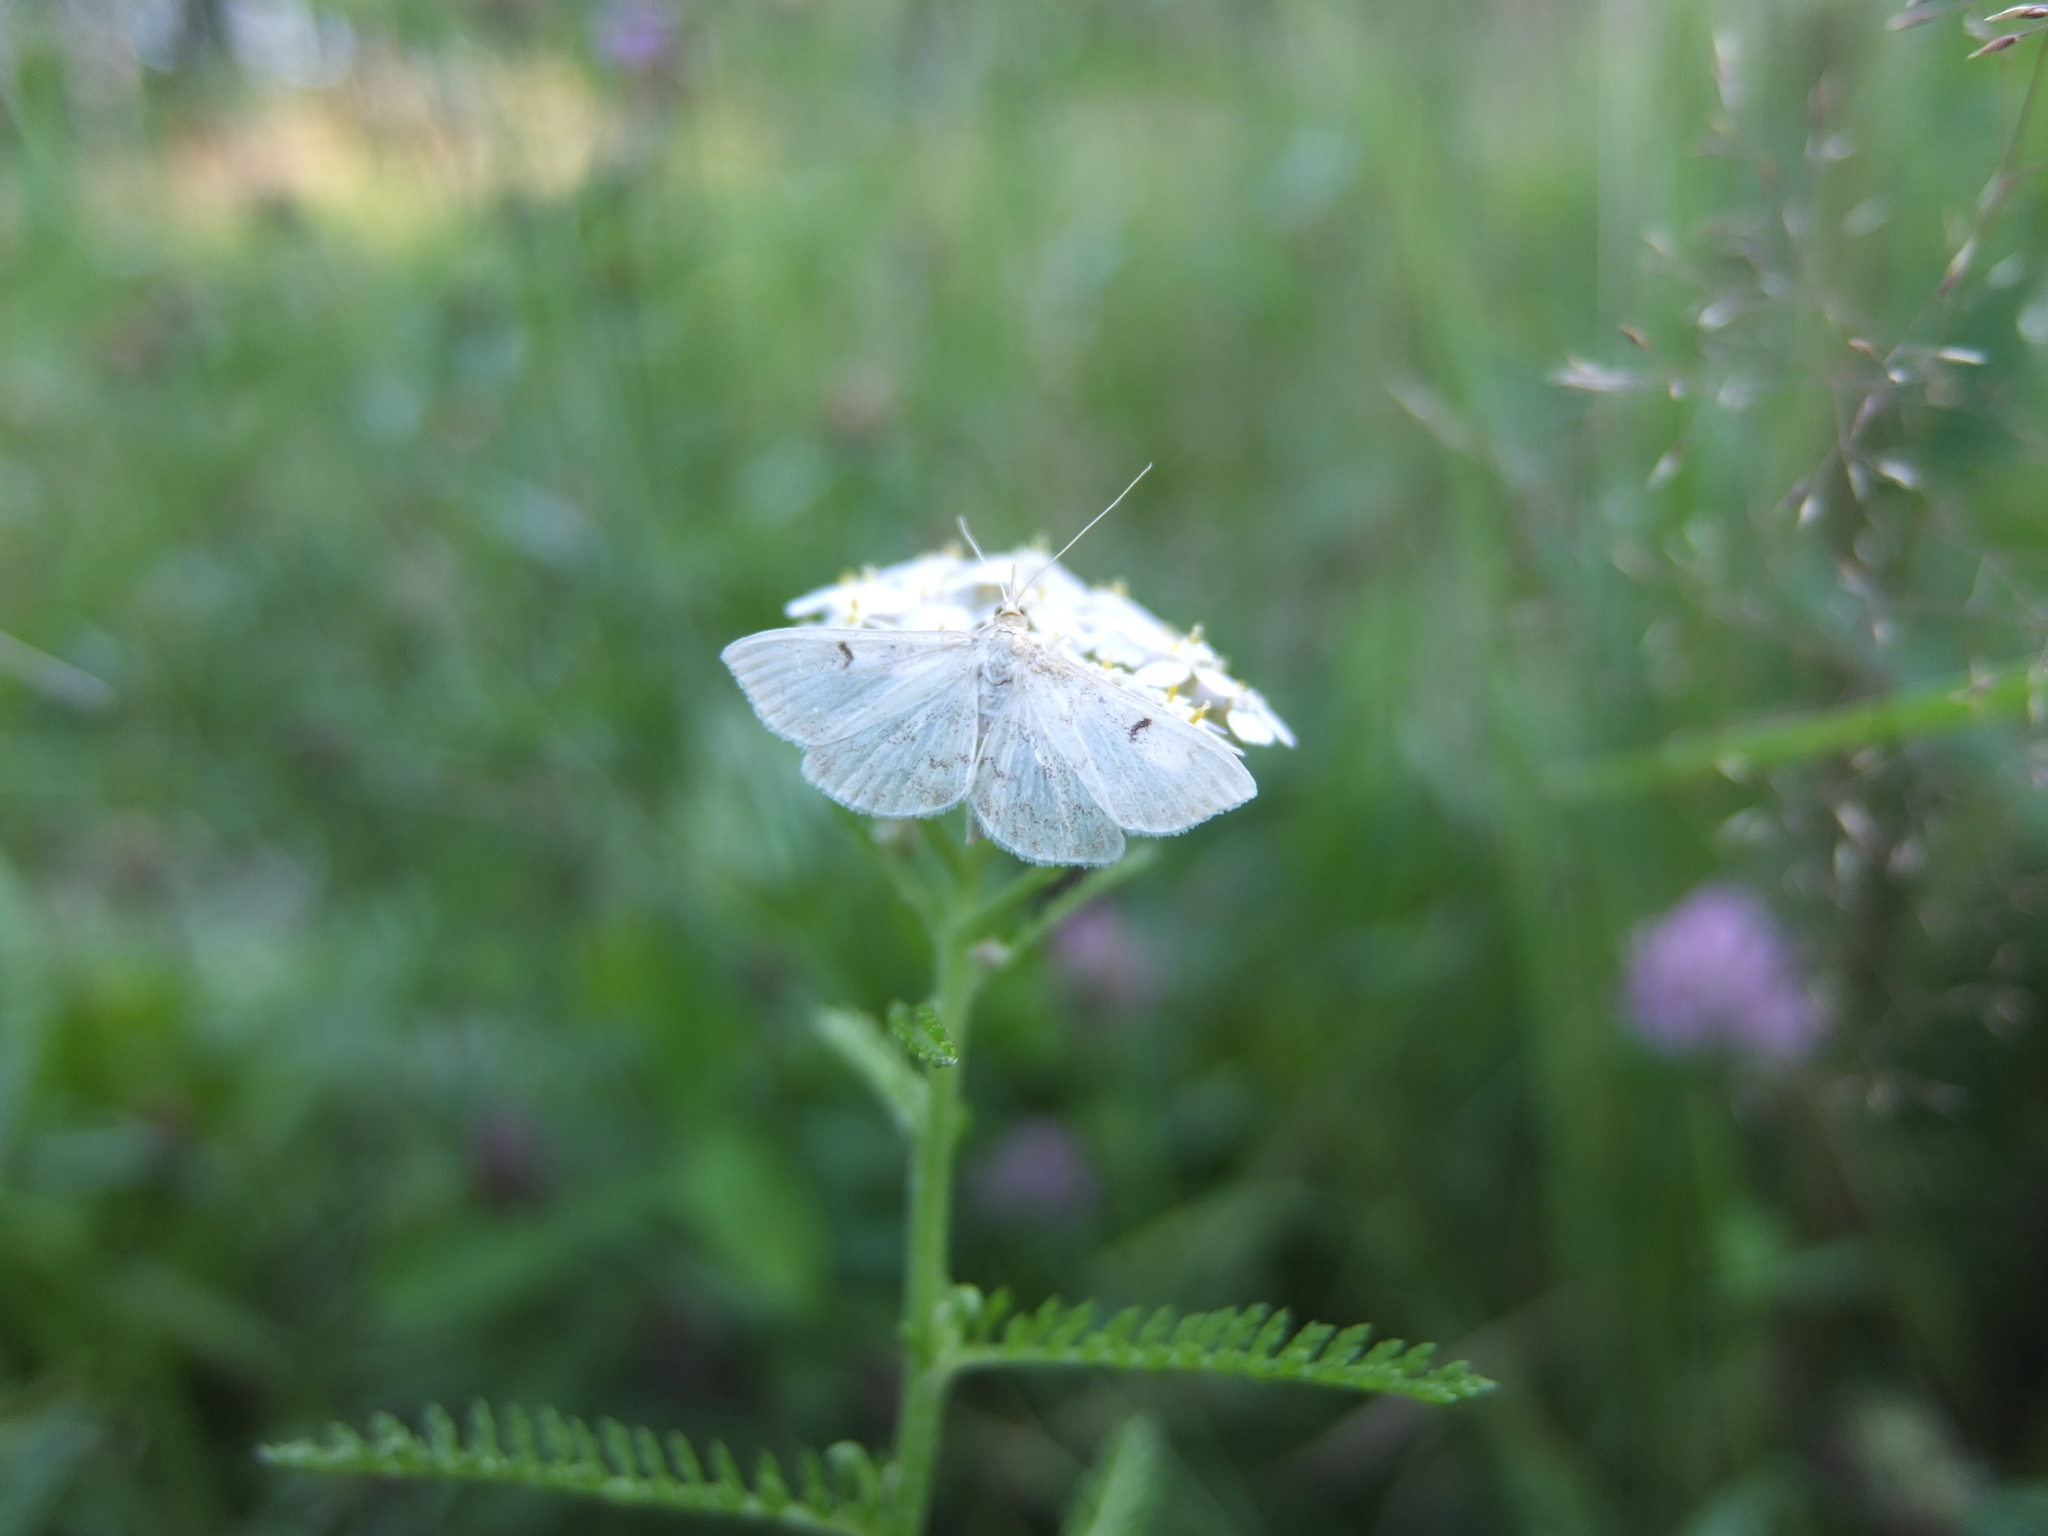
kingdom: Animalia
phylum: Arthropoda
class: Insecta
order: Lepidoptera
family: Crambidae
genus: Anania
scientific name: Anania perlucidalis
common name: Fenland pearl
